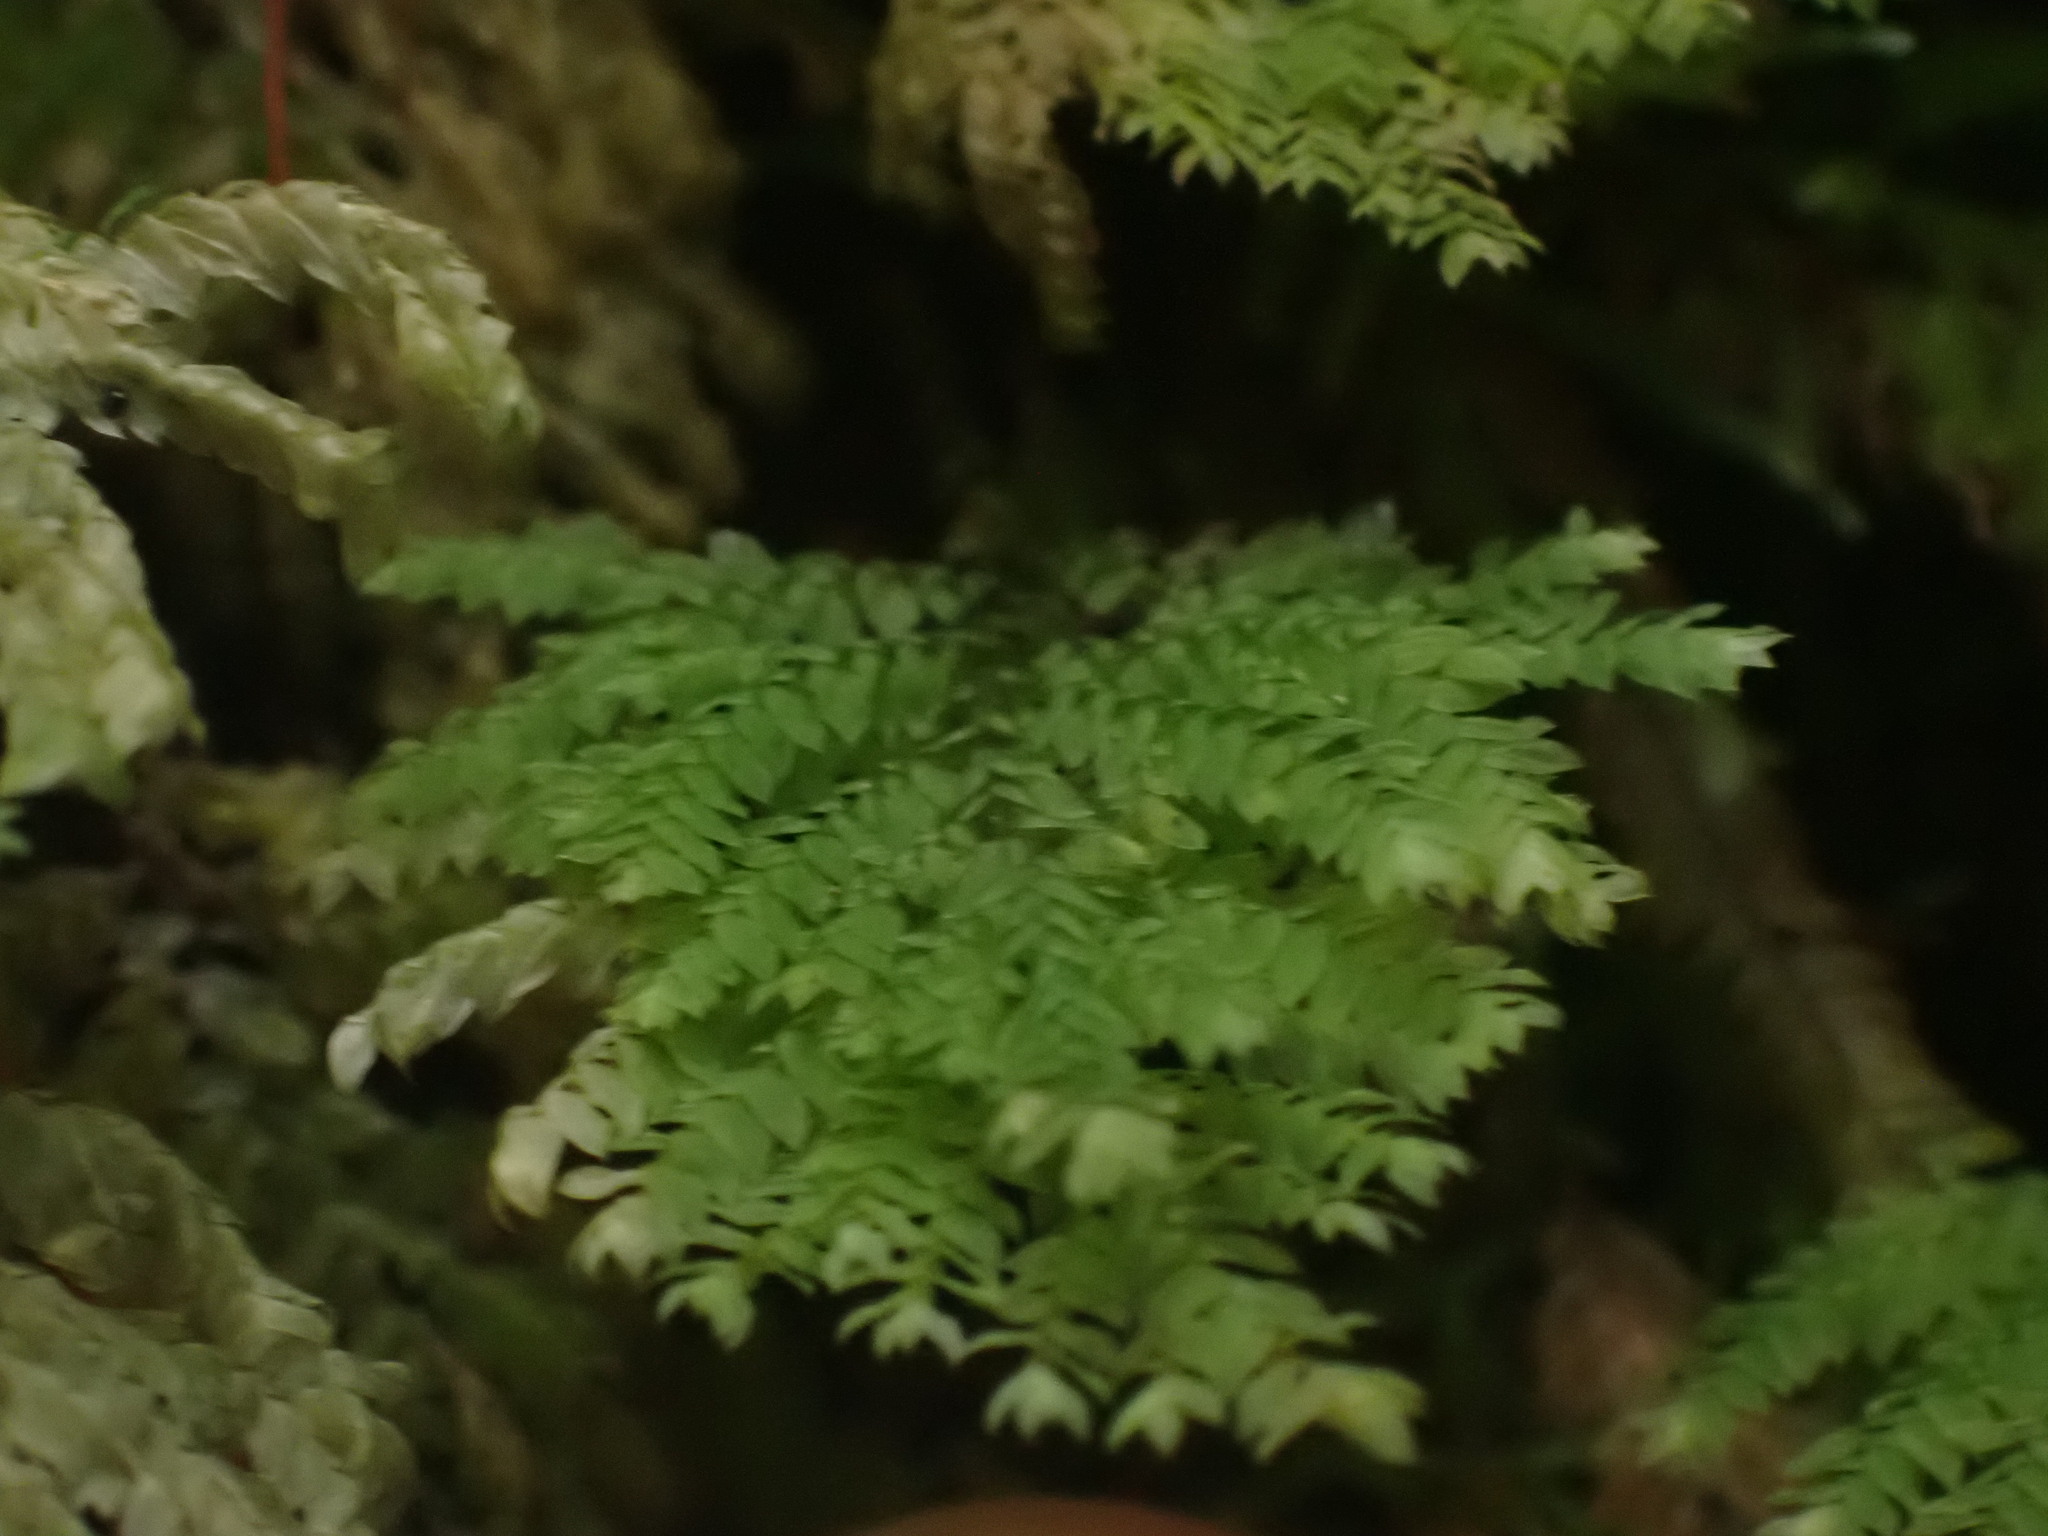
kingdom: Plantae
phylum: Bryophyta
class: Bryopsida
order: Hypopterygiales
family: Hypopterygiaceae
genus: Hypopterygium
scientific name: Hypopterygium flavolimbatum
